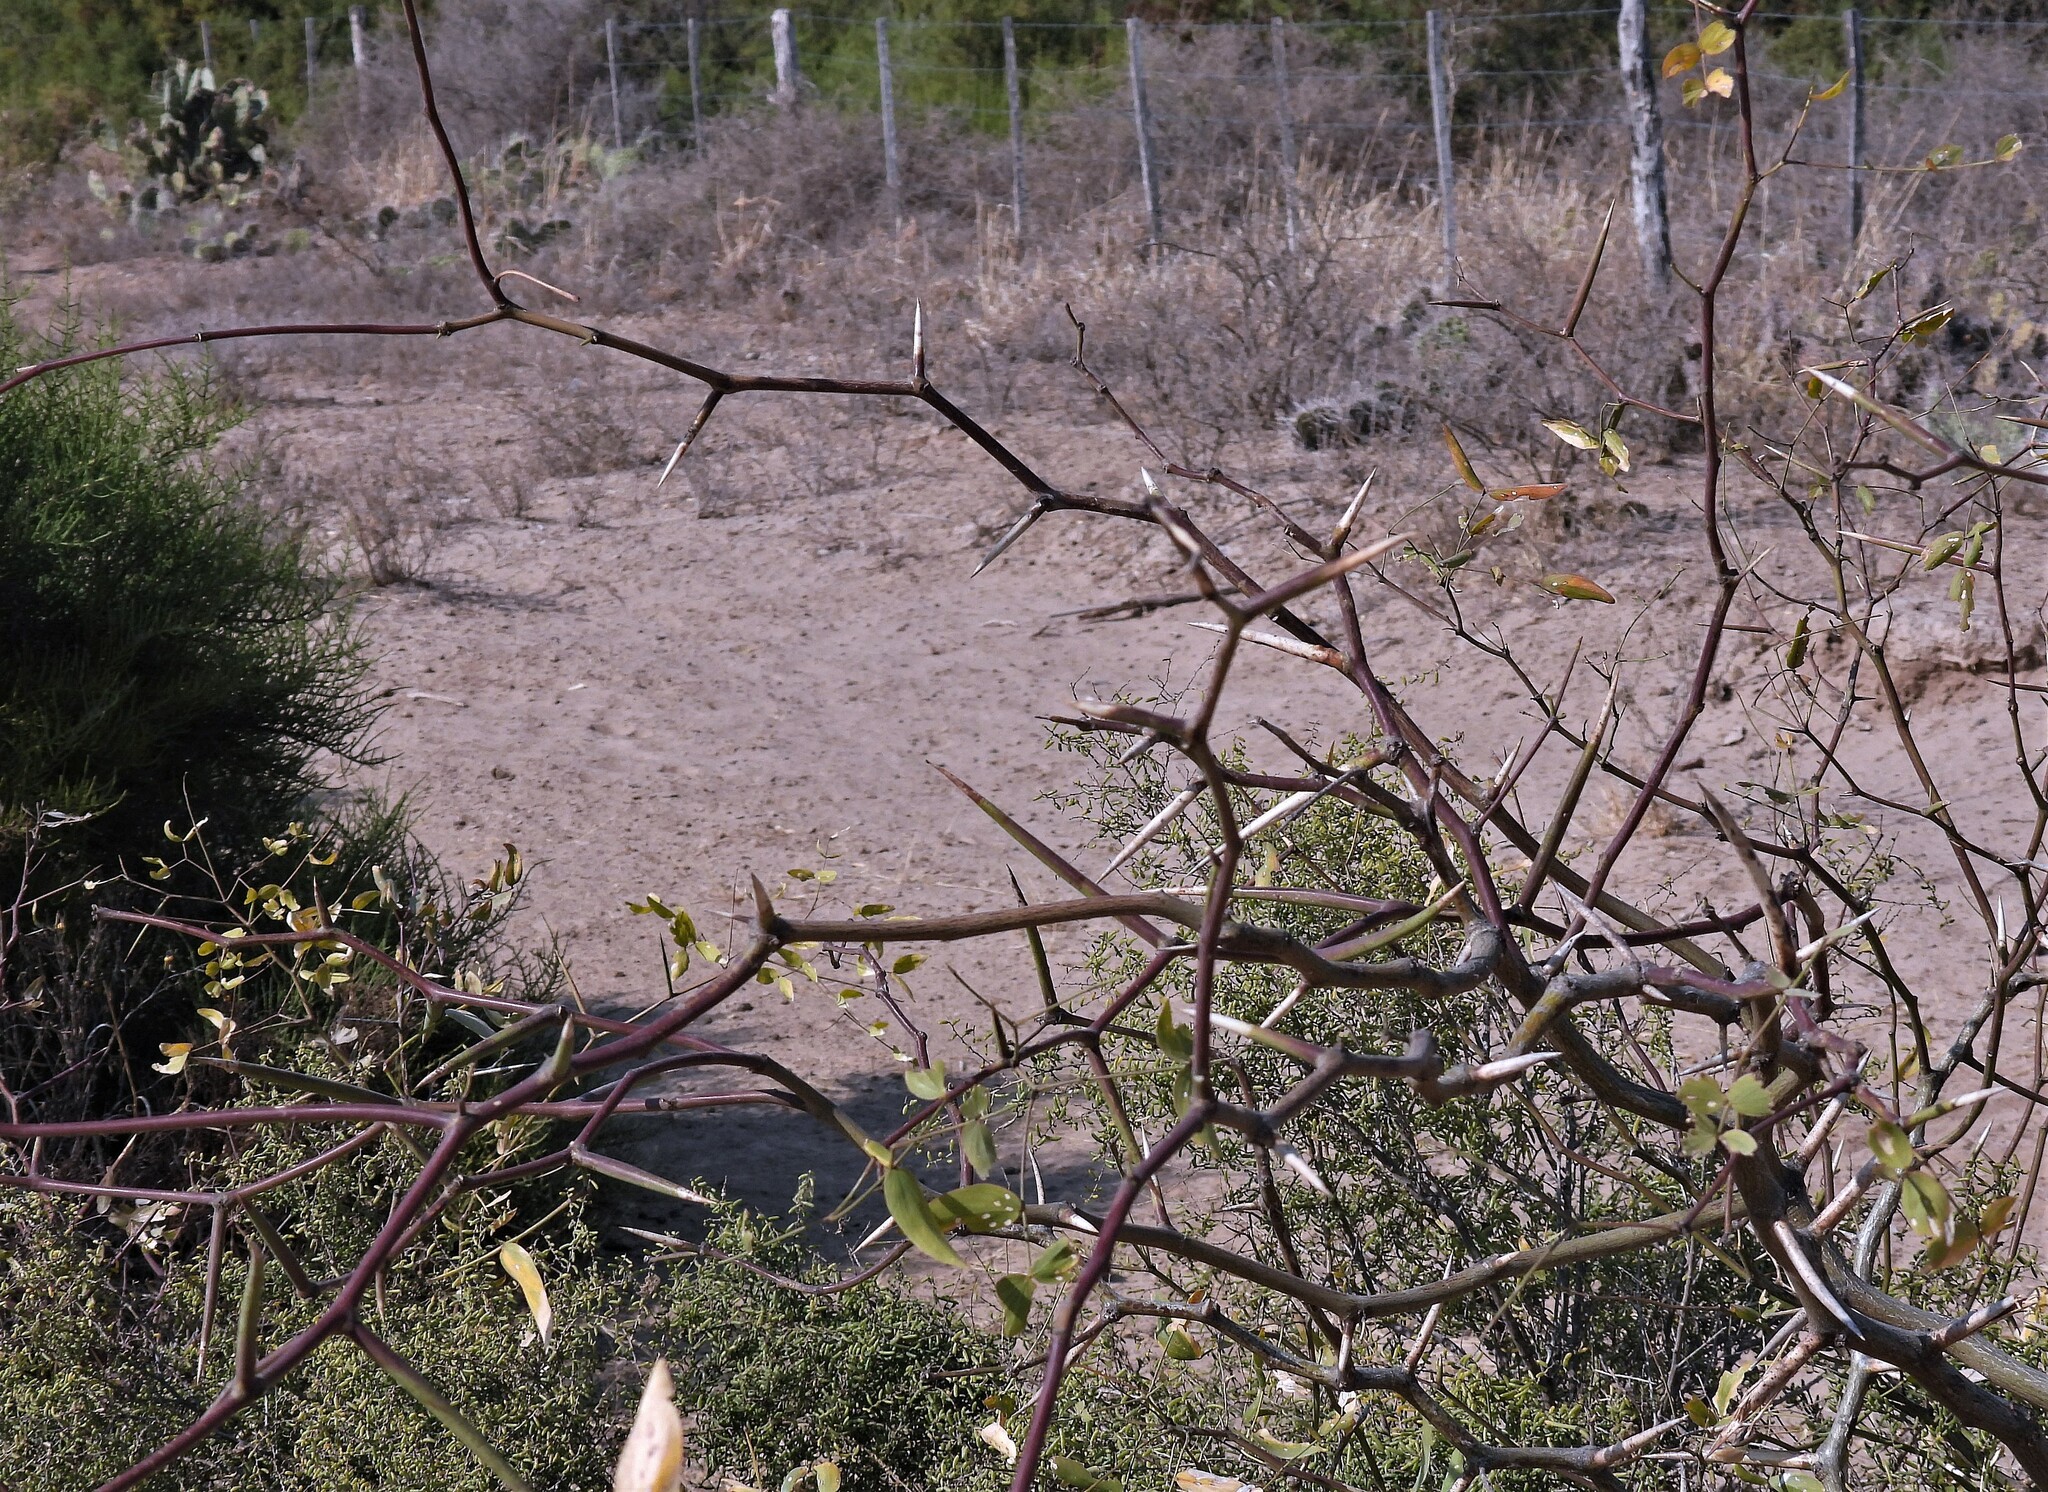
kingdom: Plantae
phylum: Tracheophyta
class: Magnoliopsida
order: Fabales
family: Fabaceae
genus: Prosopis
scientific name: Prosopis ruscifolia
